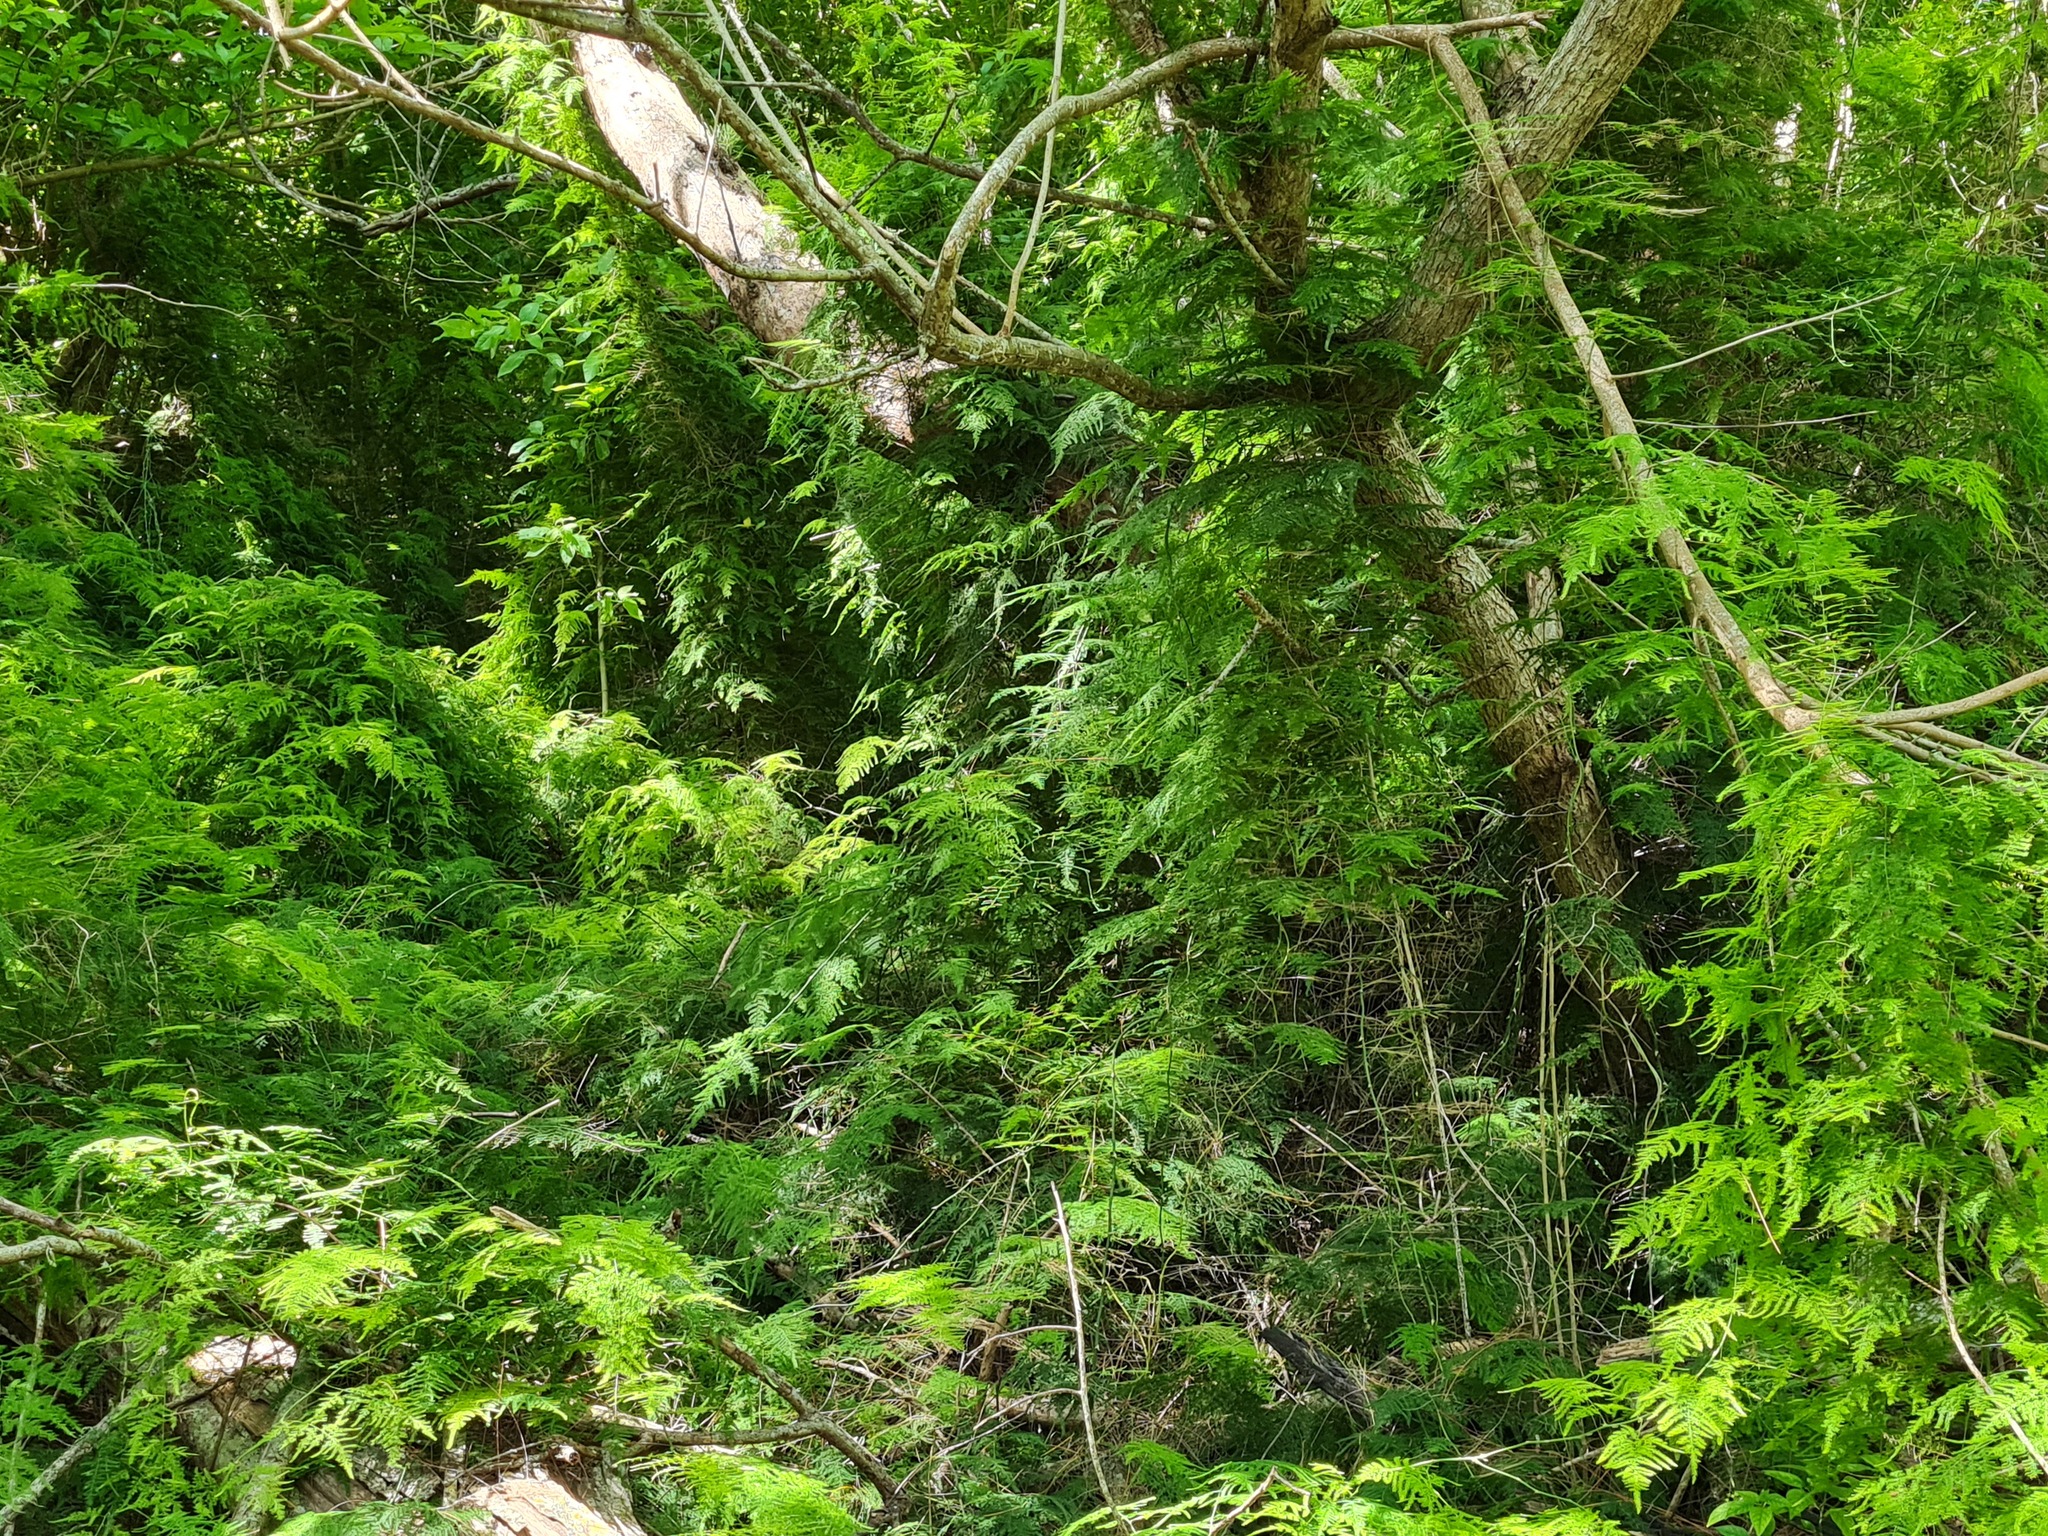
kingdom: Plantae
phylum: Tracheophyta
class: Liliopsida
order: Asparagales
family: Asparagaceae
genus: Asparagus
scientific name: Asparagus setaceus
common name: Common asparagus fern
